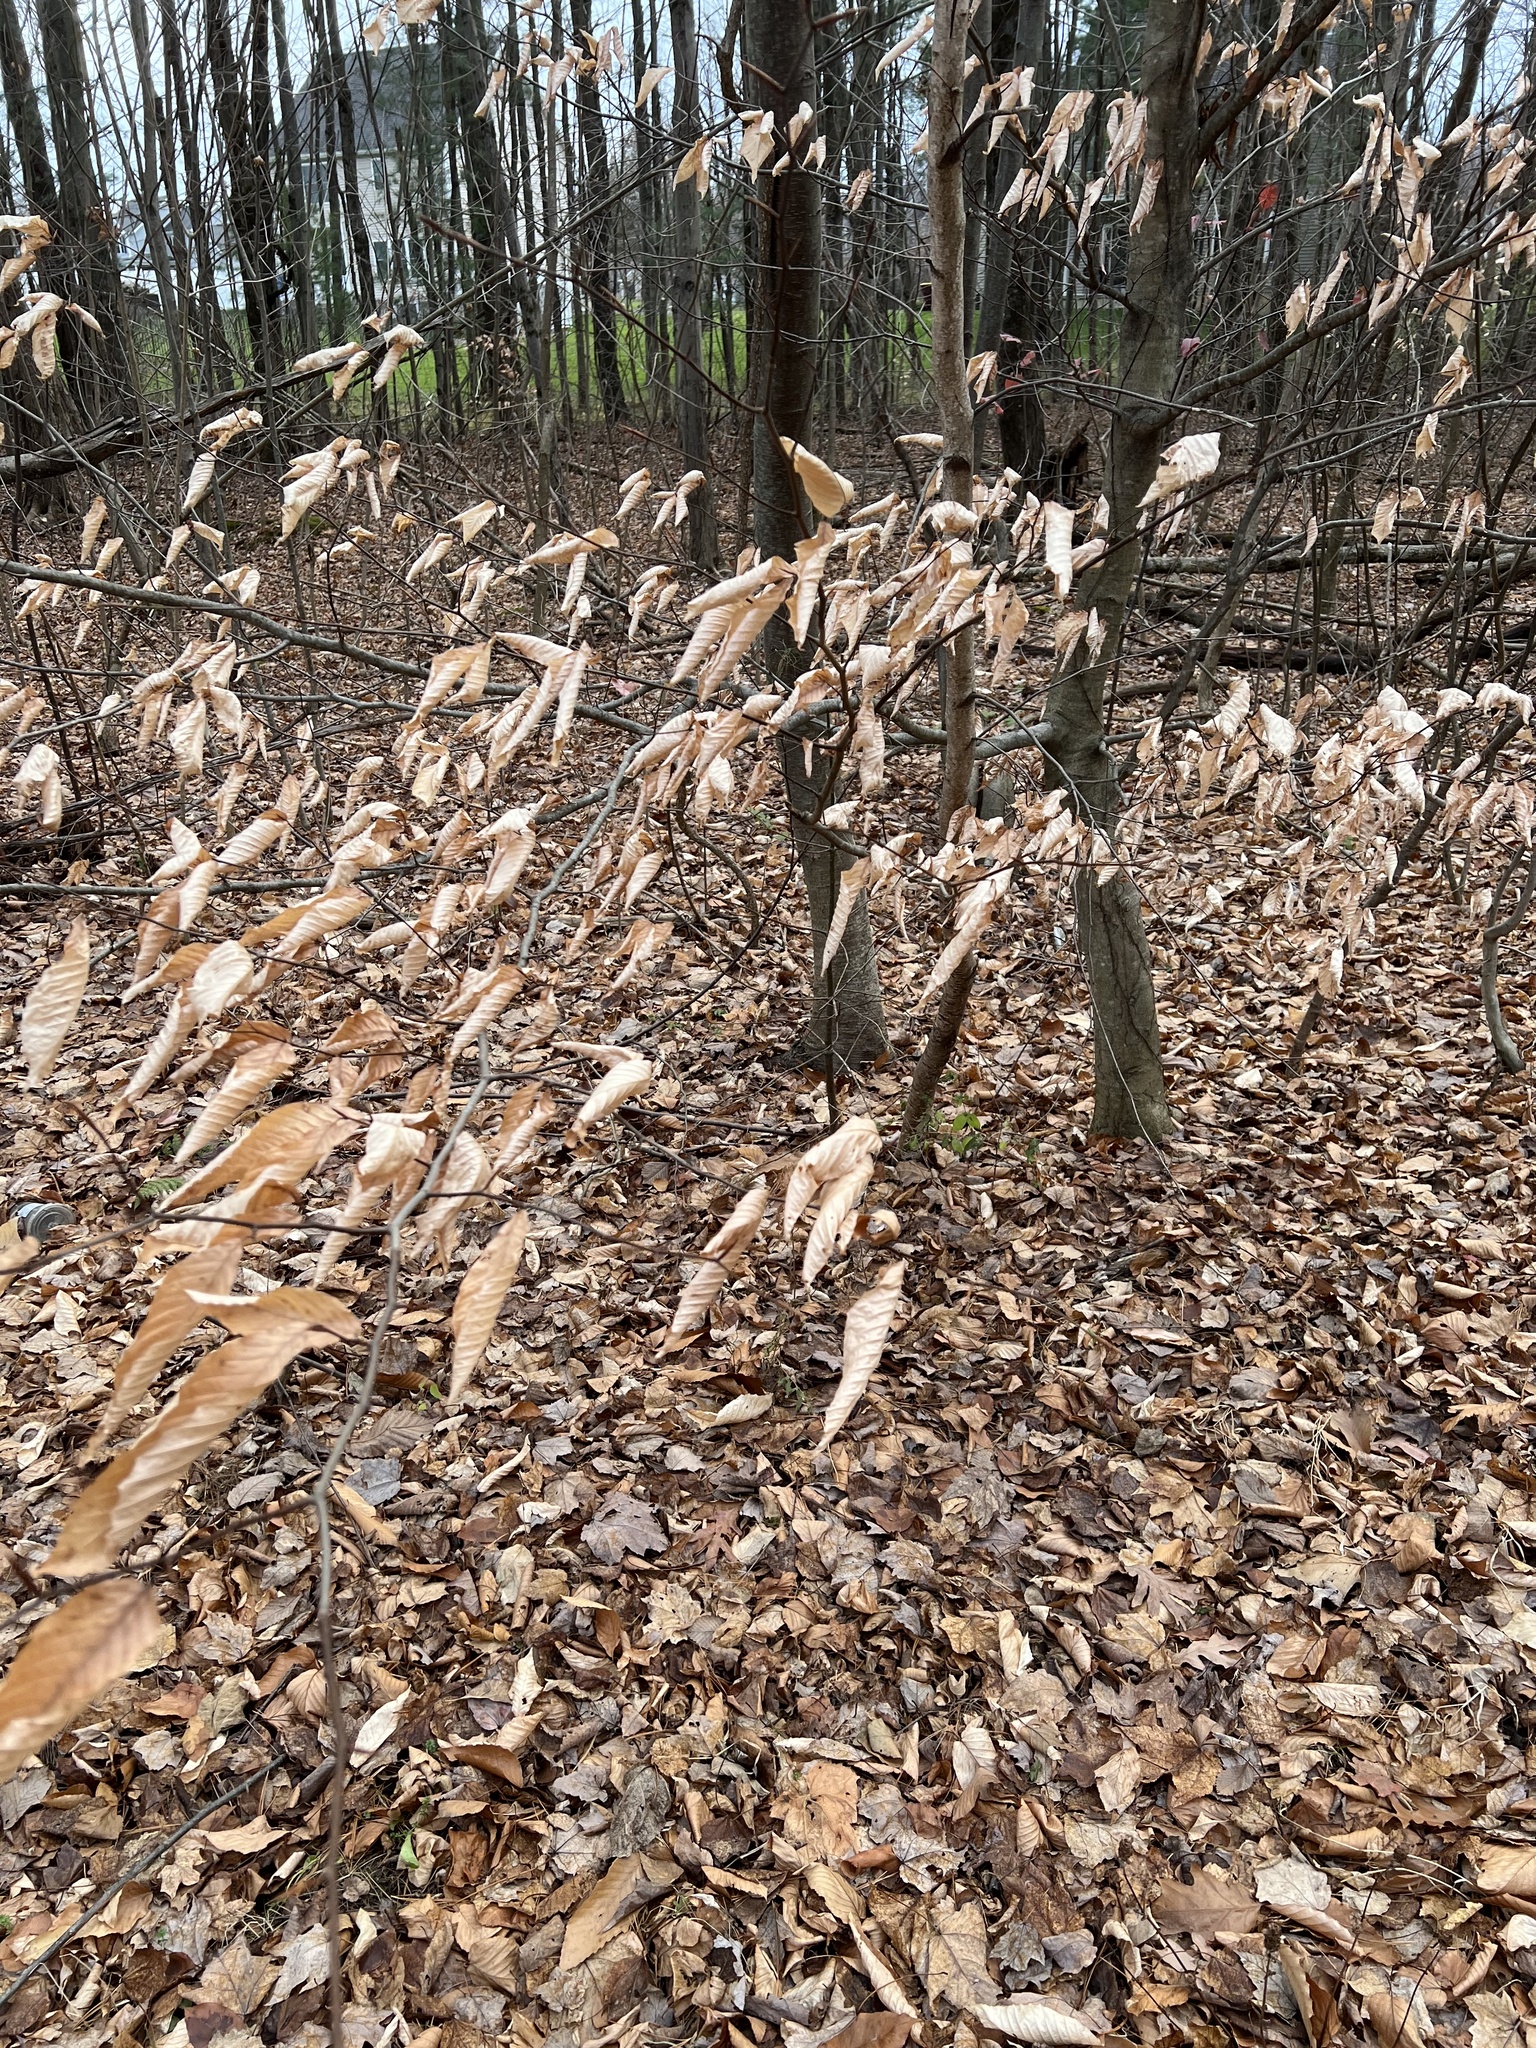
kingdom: Plantae
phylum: Tracheophyta
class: Magnoliopsida
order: Fagales
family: Fagaceae
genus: Fagus
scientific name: Fagus grandifolia
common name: American beech
